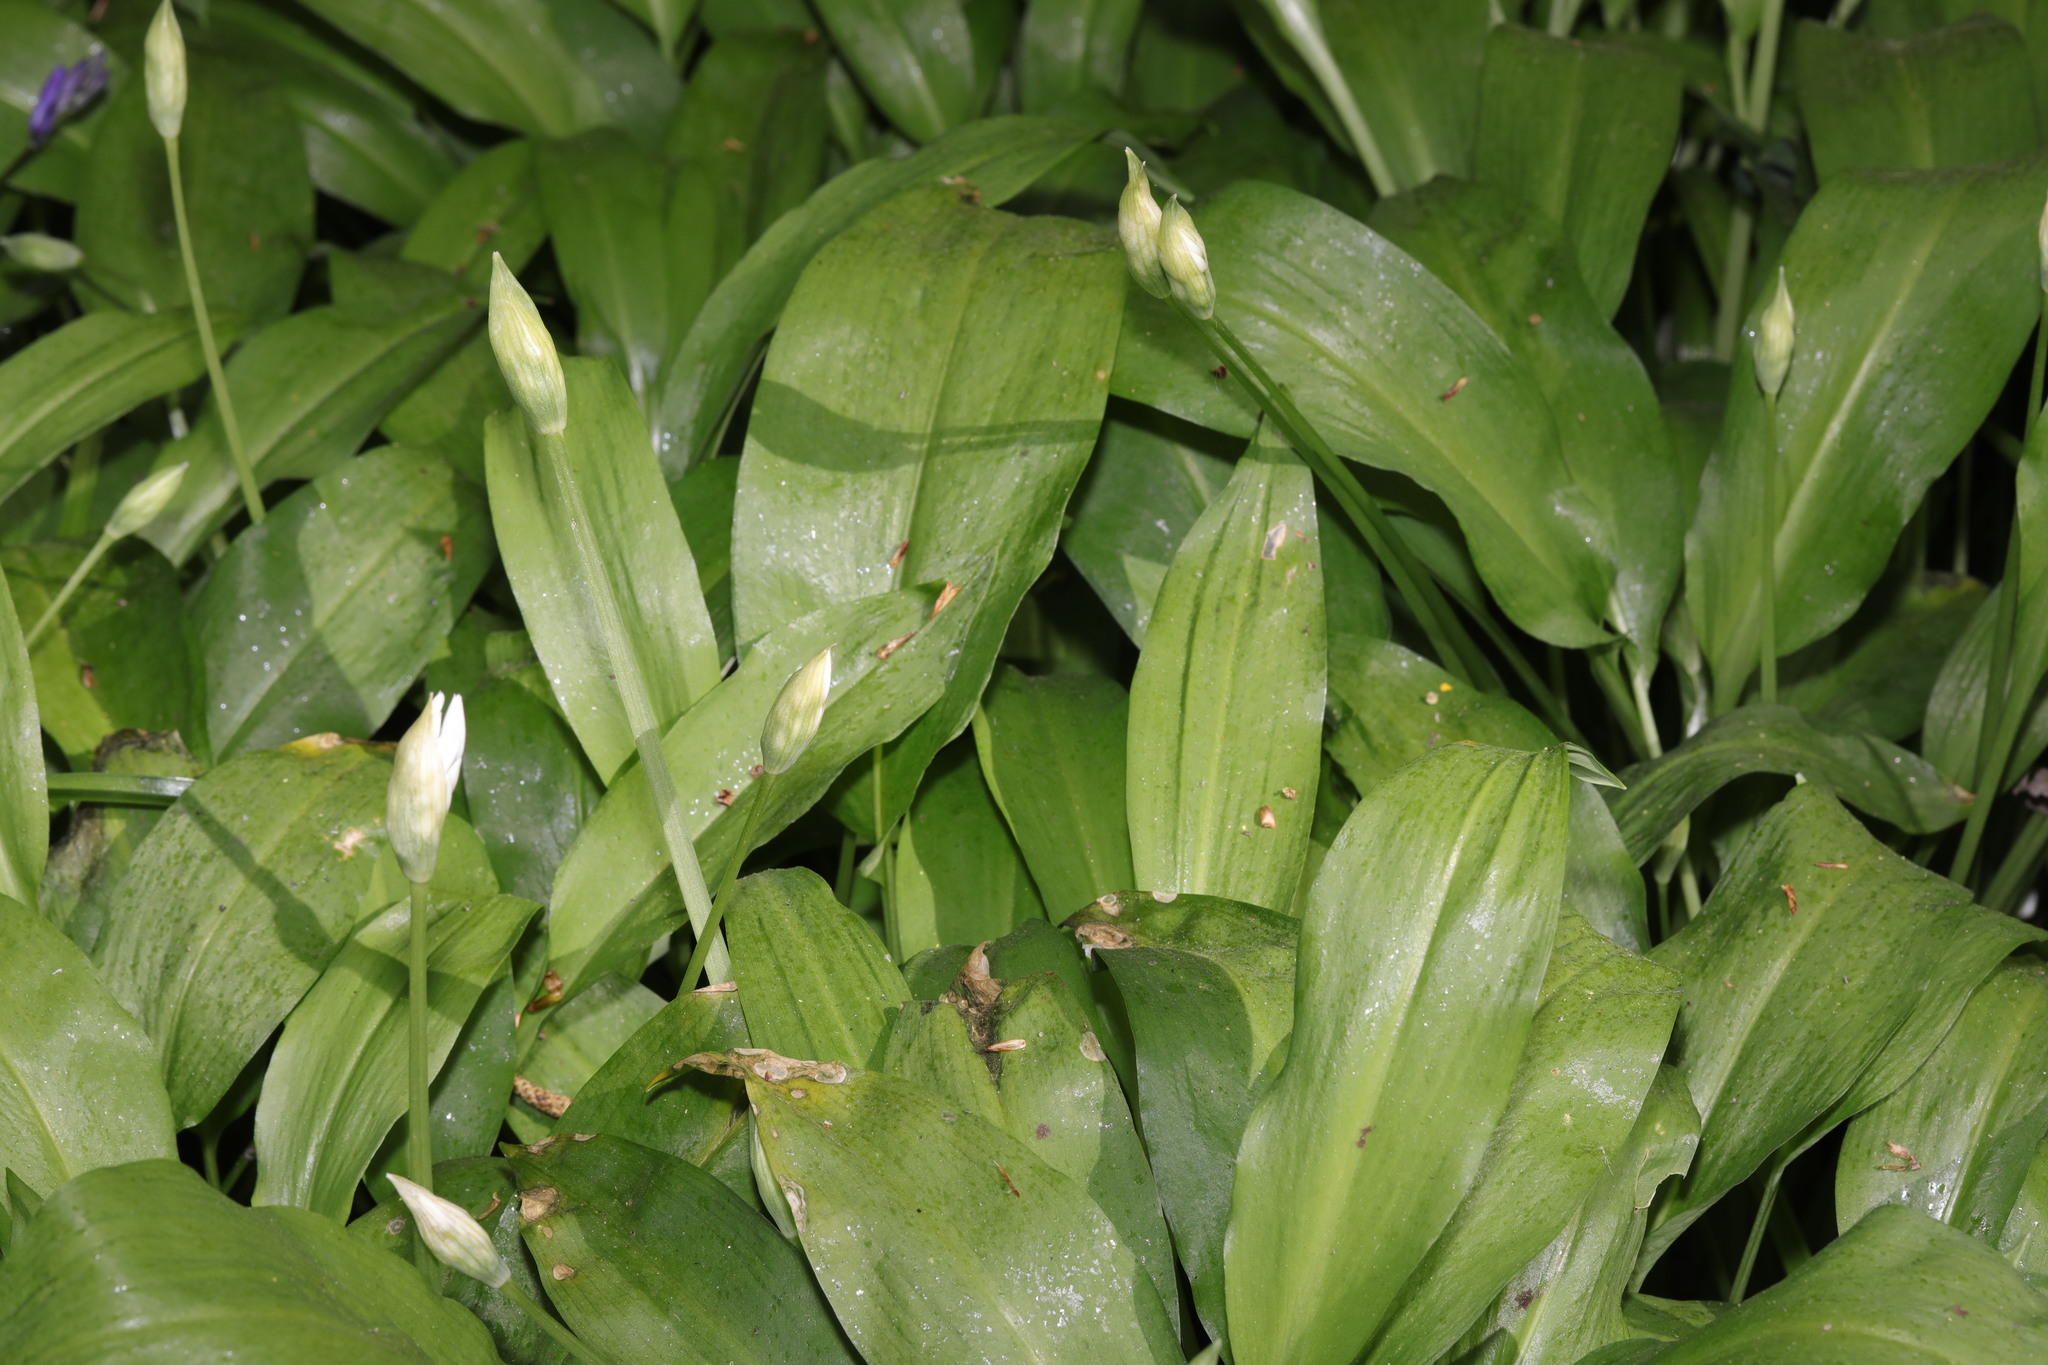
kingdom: Plantae
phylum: Tracheophyta
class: Liliopsida
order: Asparagales
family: Amaryllidaceae
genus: Allium
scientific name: Allium ursinum
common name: Ramsons
